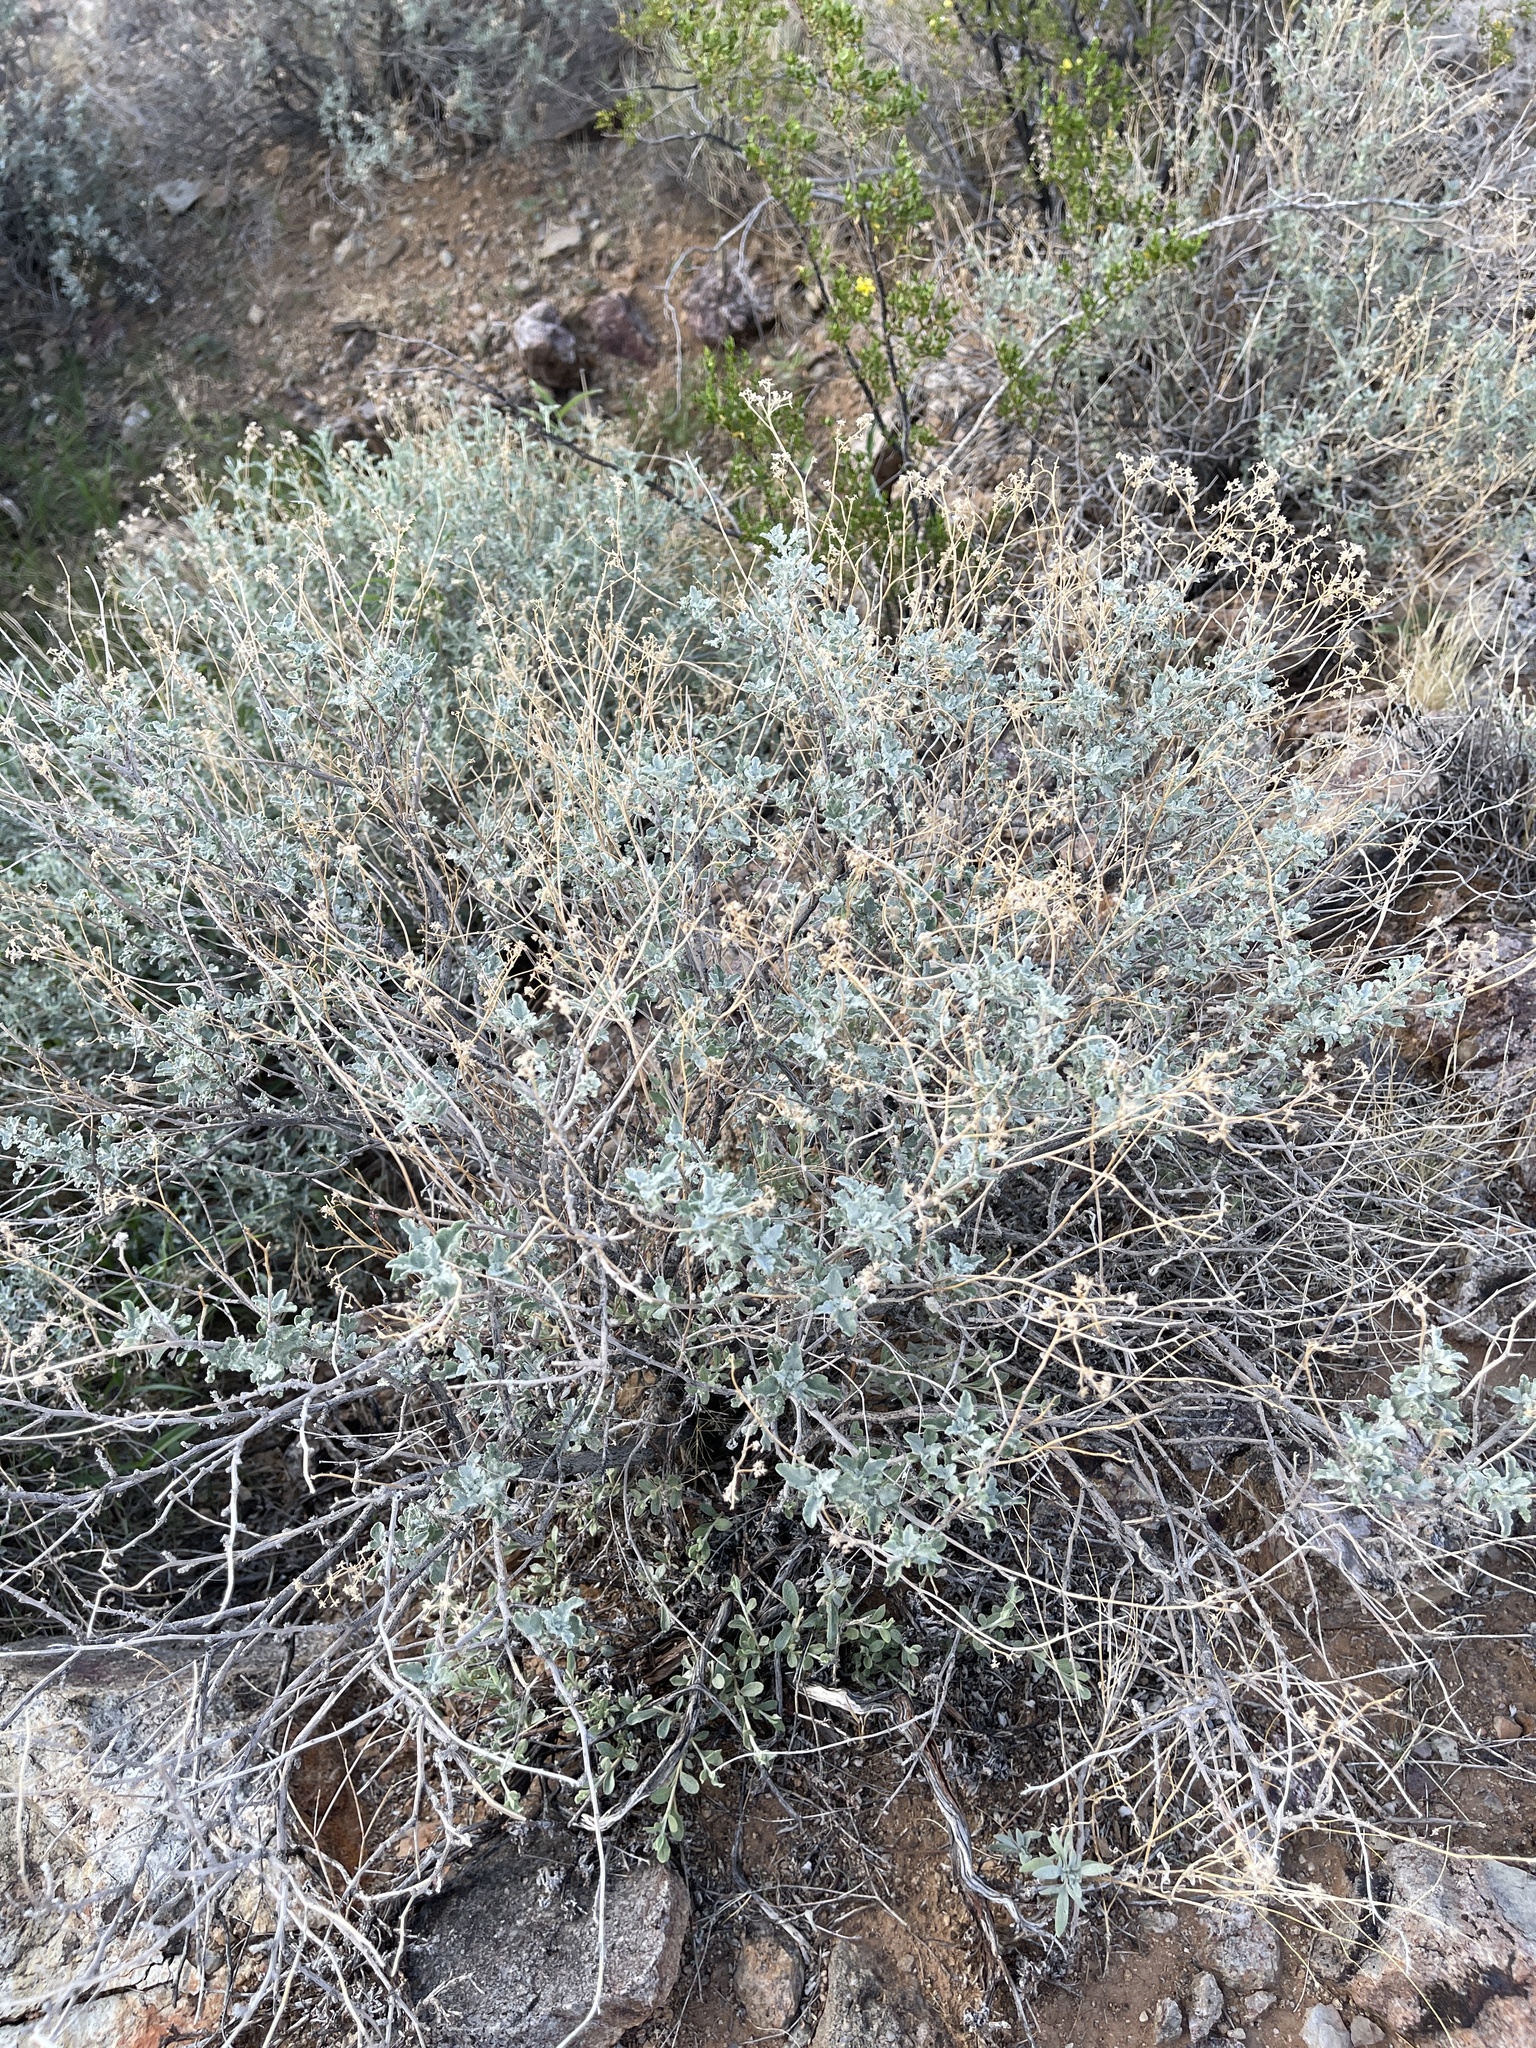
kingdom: Plantae
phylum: Tracheophyta
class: Magnoliopsida
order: Asterales
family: Asteraceae
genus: Parthenium
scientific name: Parthenium incanum
